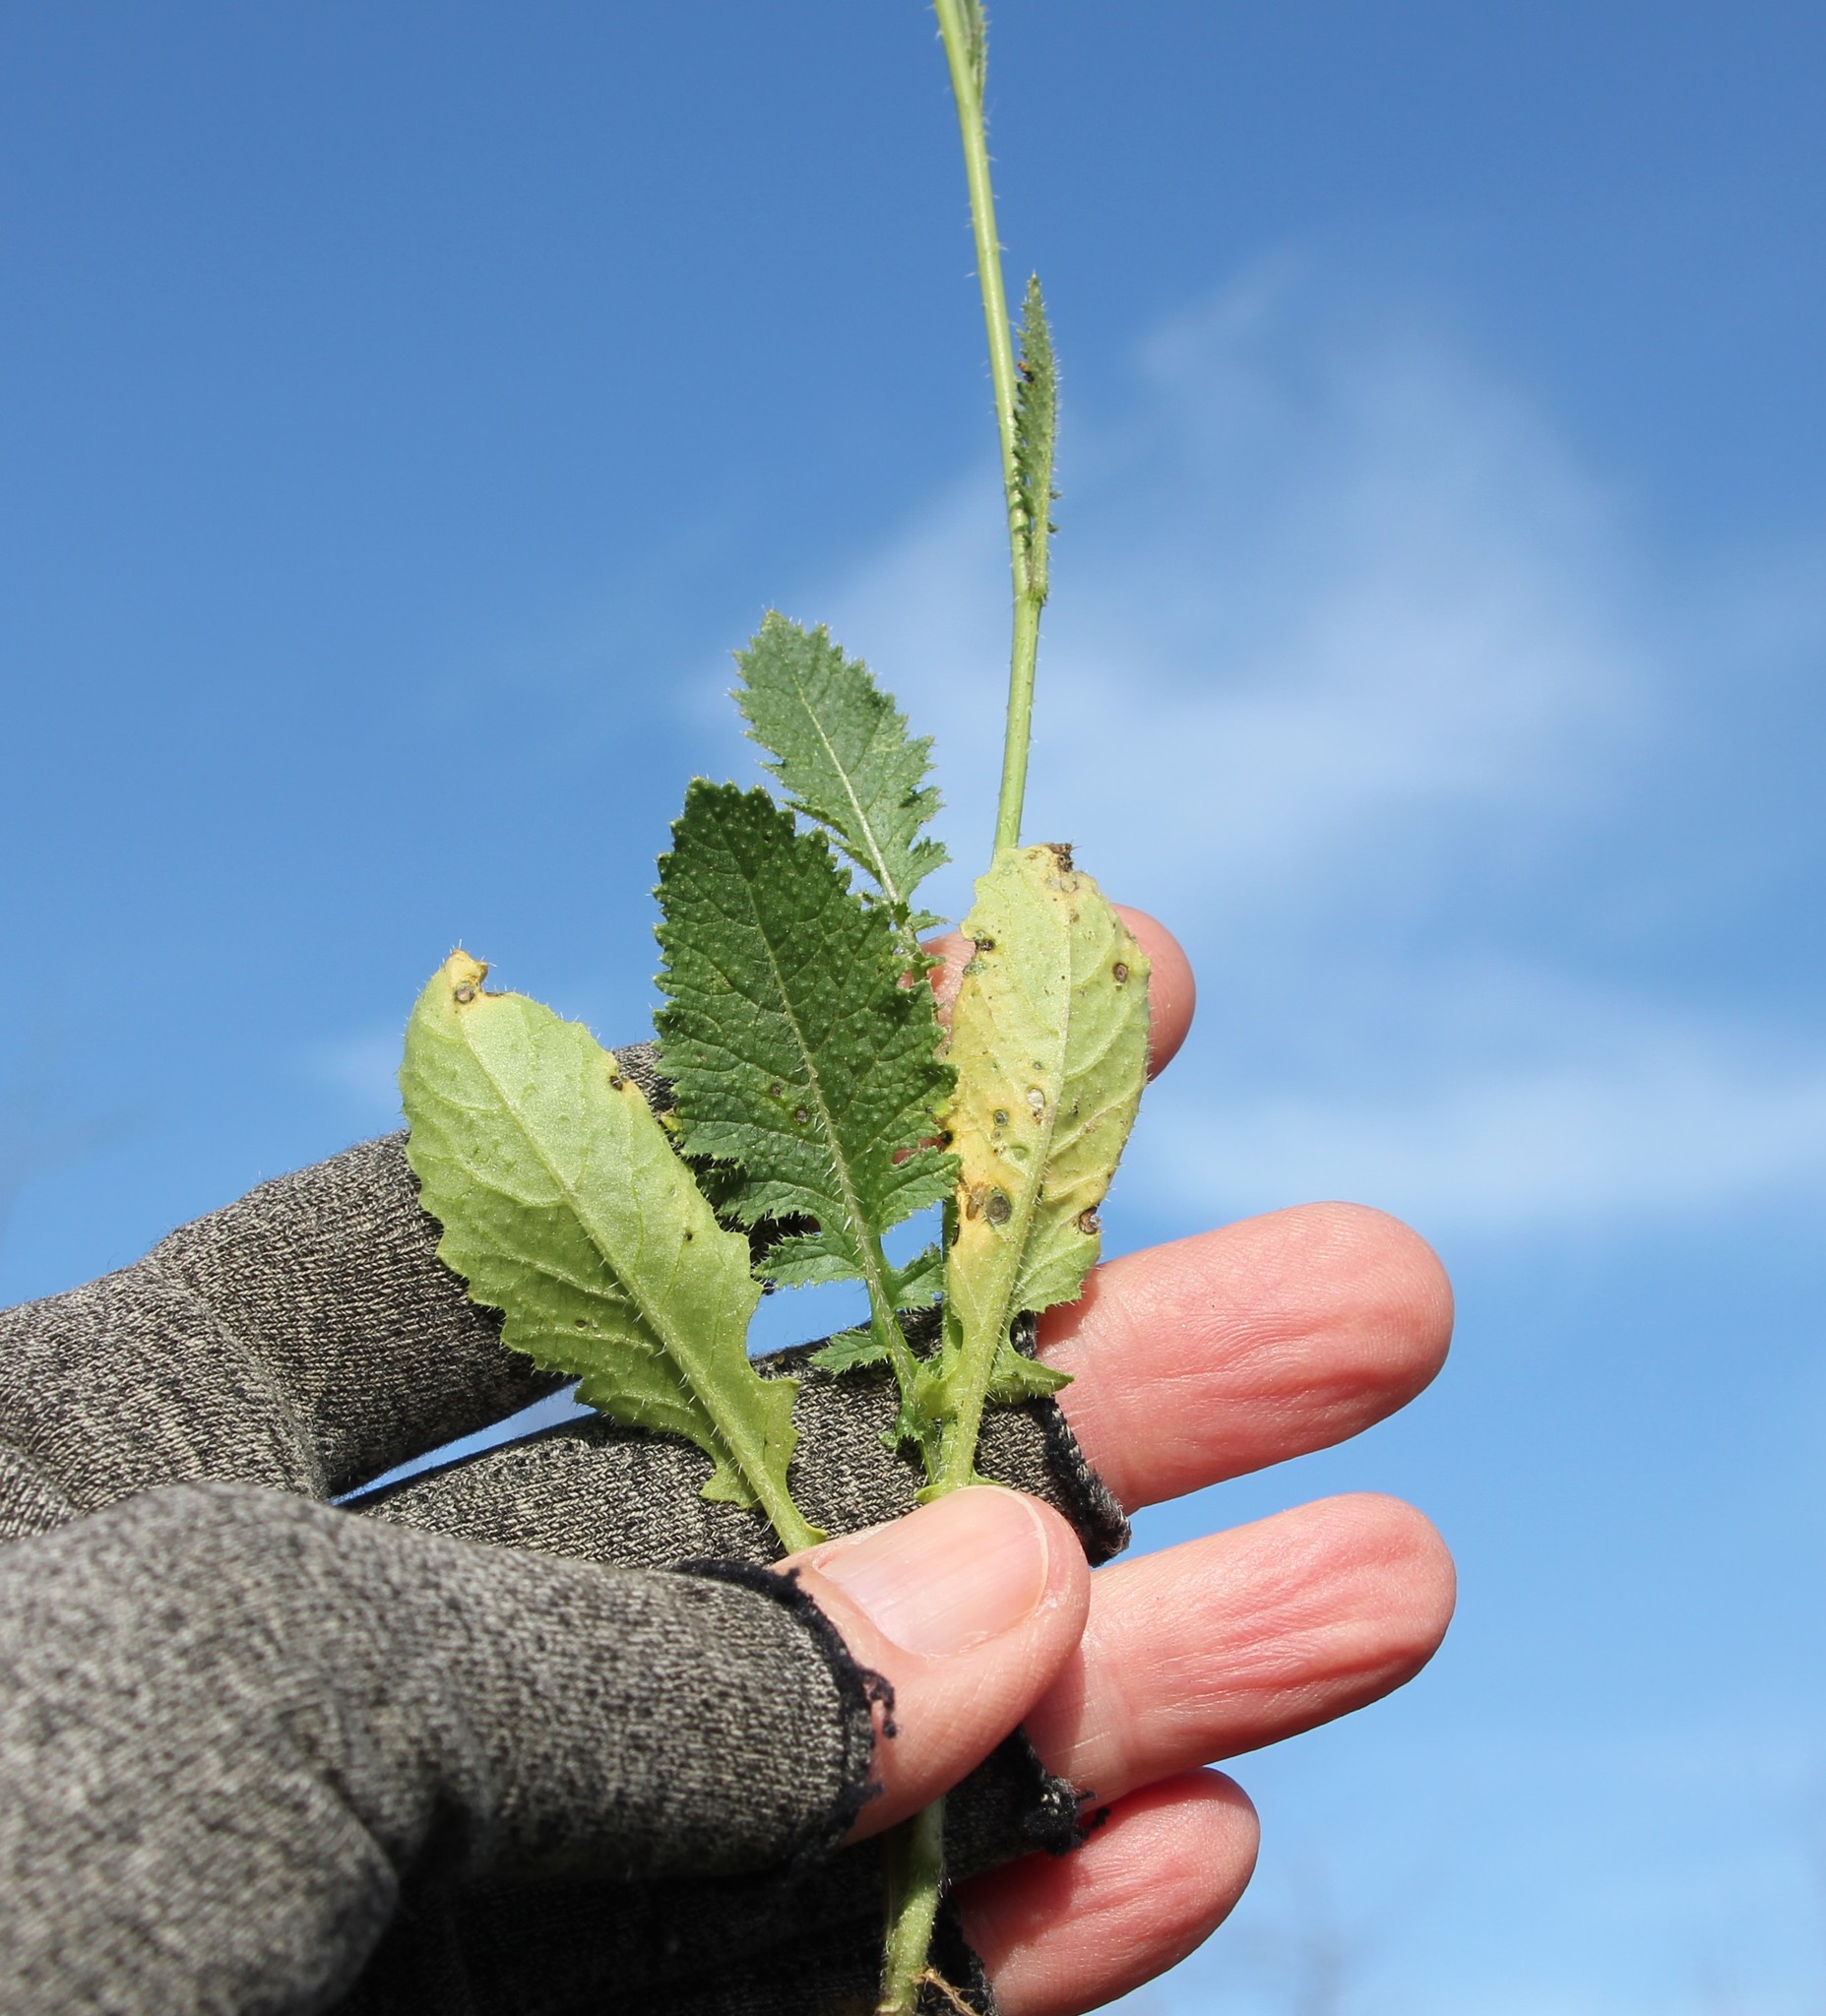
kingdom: Plantae
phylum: Tracheophyta
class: Magnoliopsida
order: Brassicales
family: Brassicaceae
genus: Brassica
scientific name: Brassica tournefortii
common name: Pale cabbage
